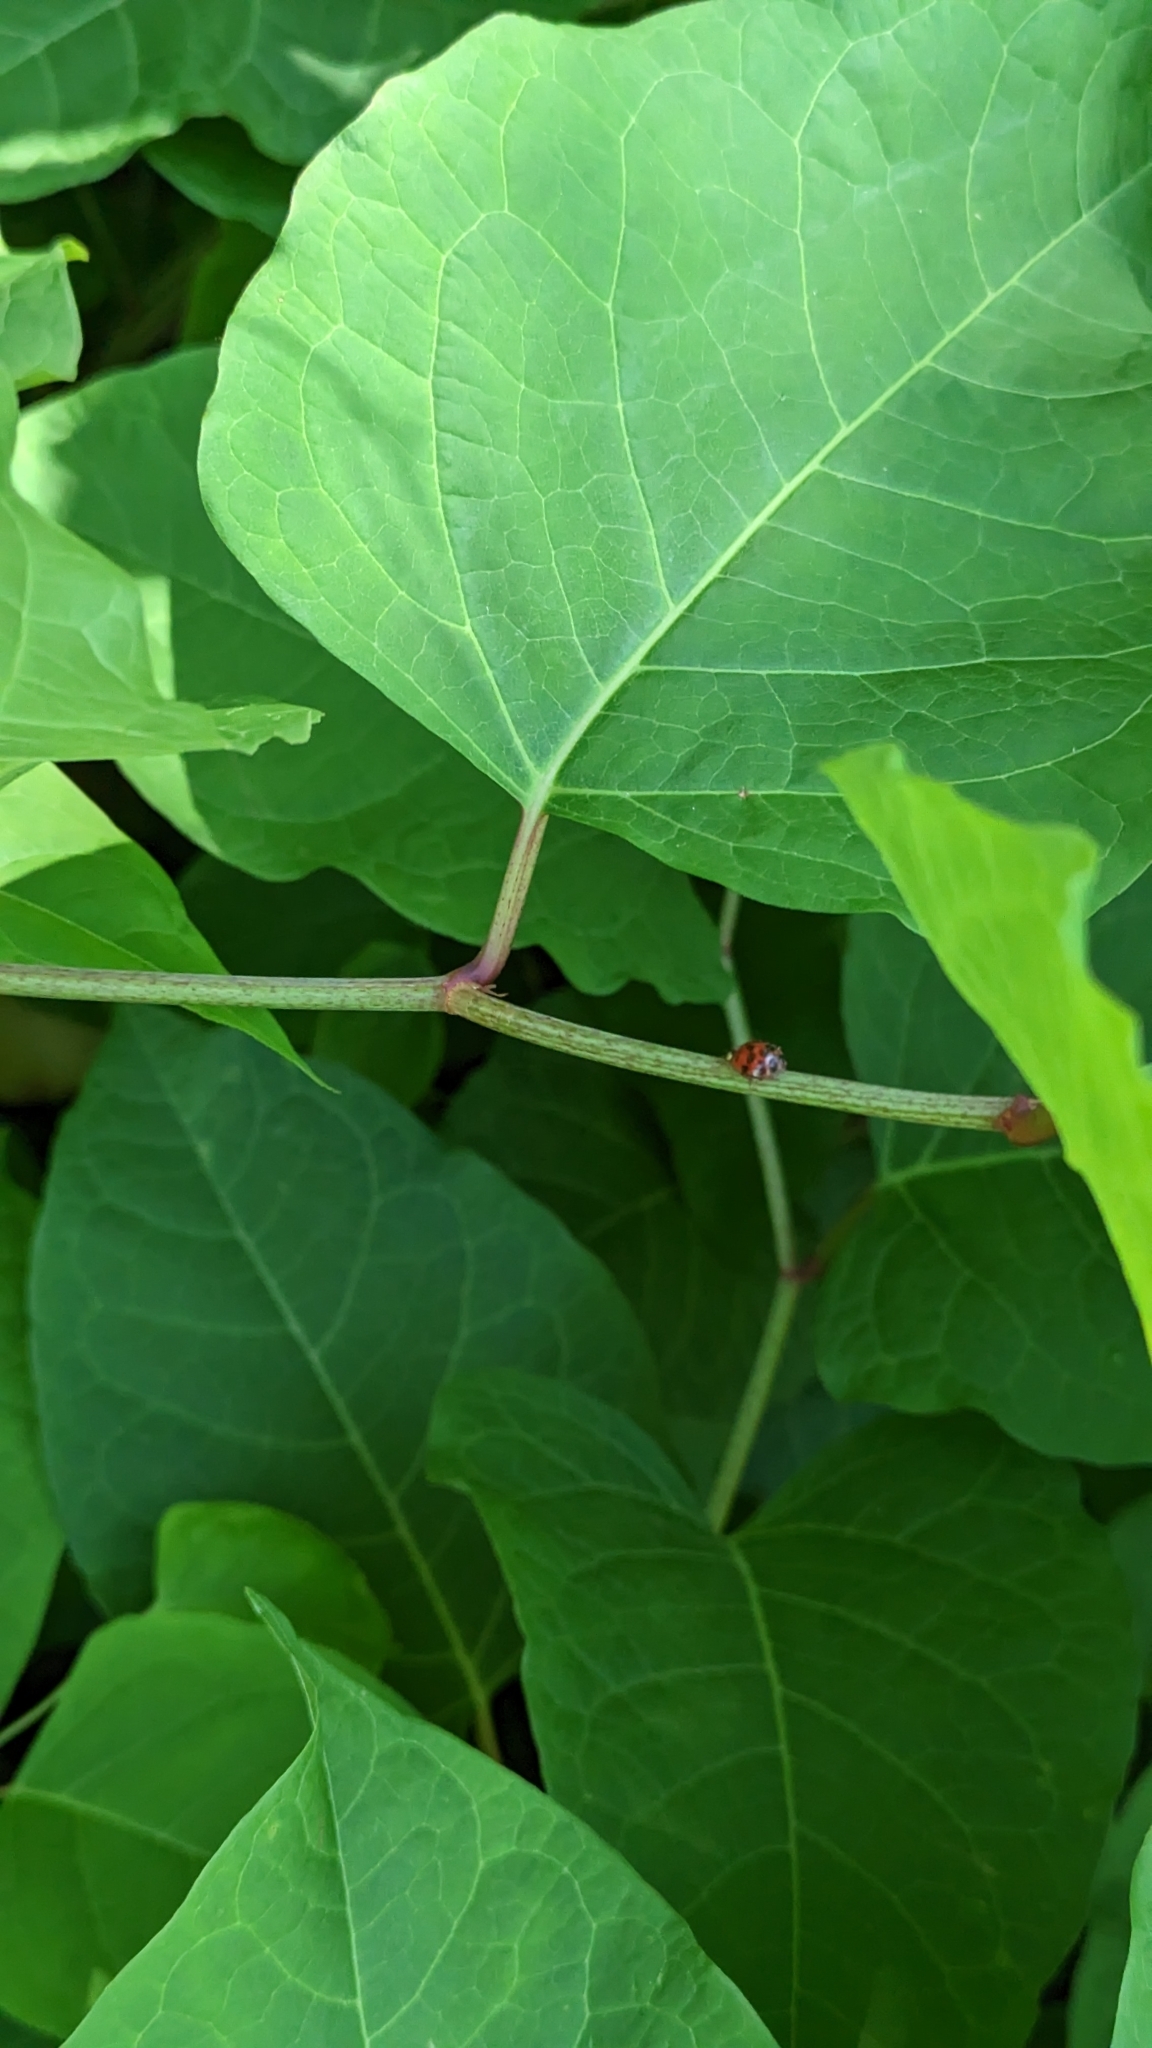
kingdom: Animalia
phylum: Arthropoda
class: Insecta
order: Coleoptera
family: Coccinellidae
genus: Harmonia
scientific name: Harmonia axyridis
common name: Harlequin ladybird
